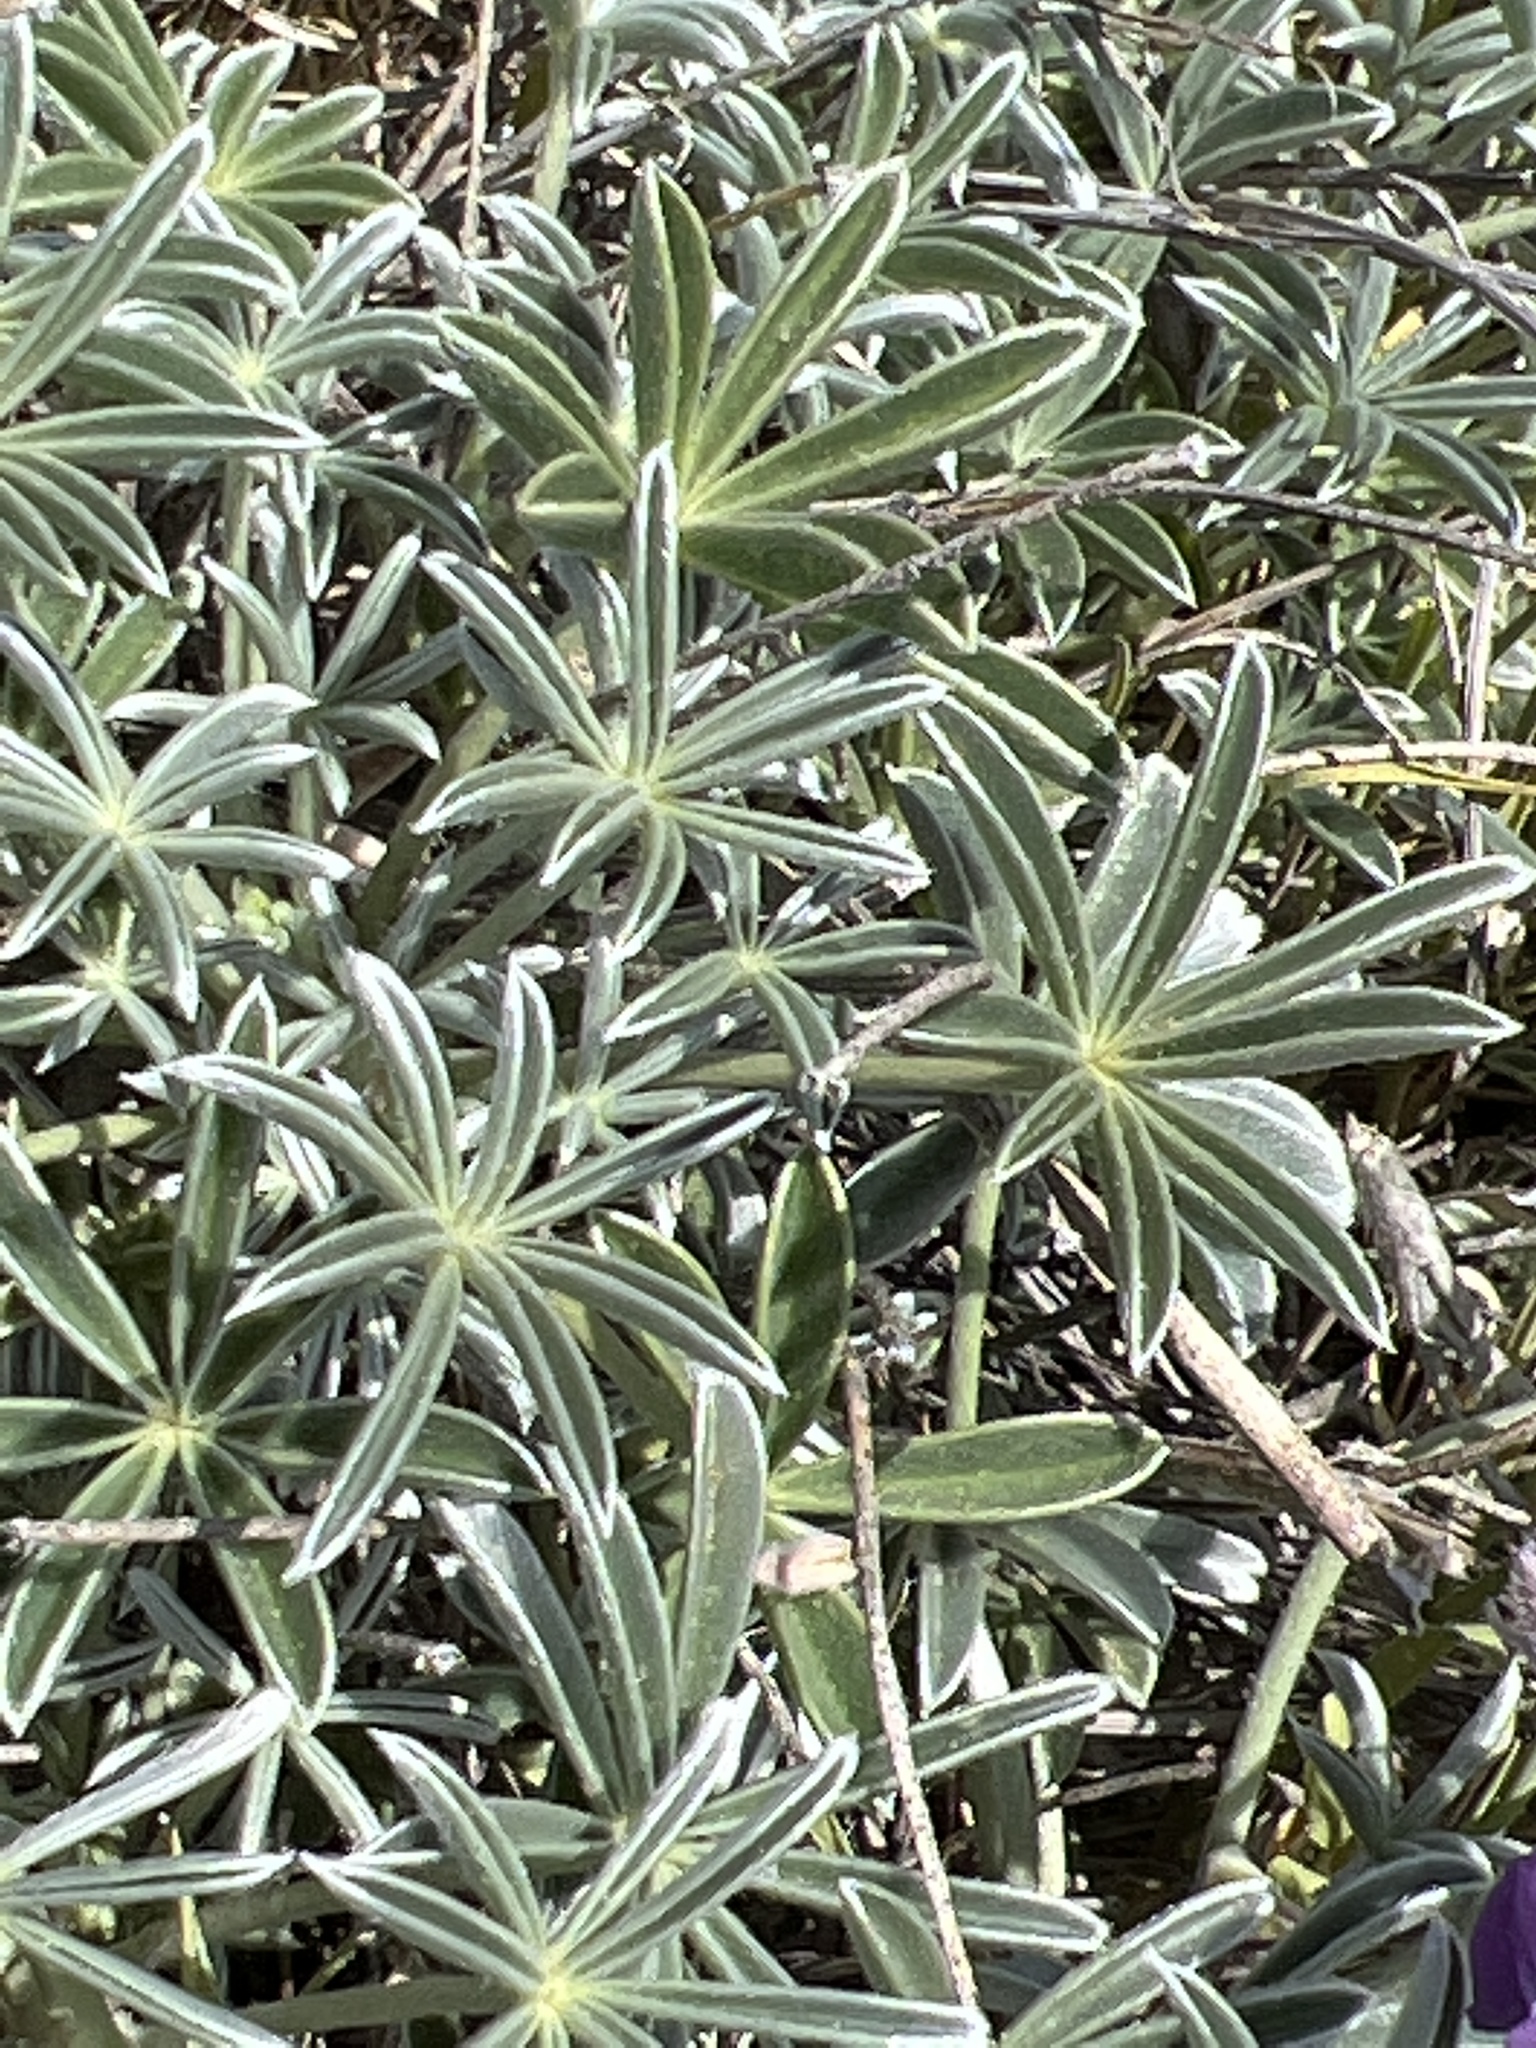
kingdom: Plantae
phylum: Tracheophyta
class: Magnoliopsida
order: Fabales
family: Fabaceae
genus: Lupinus
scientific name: Lupinus albifrons
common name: Foothill lupine
